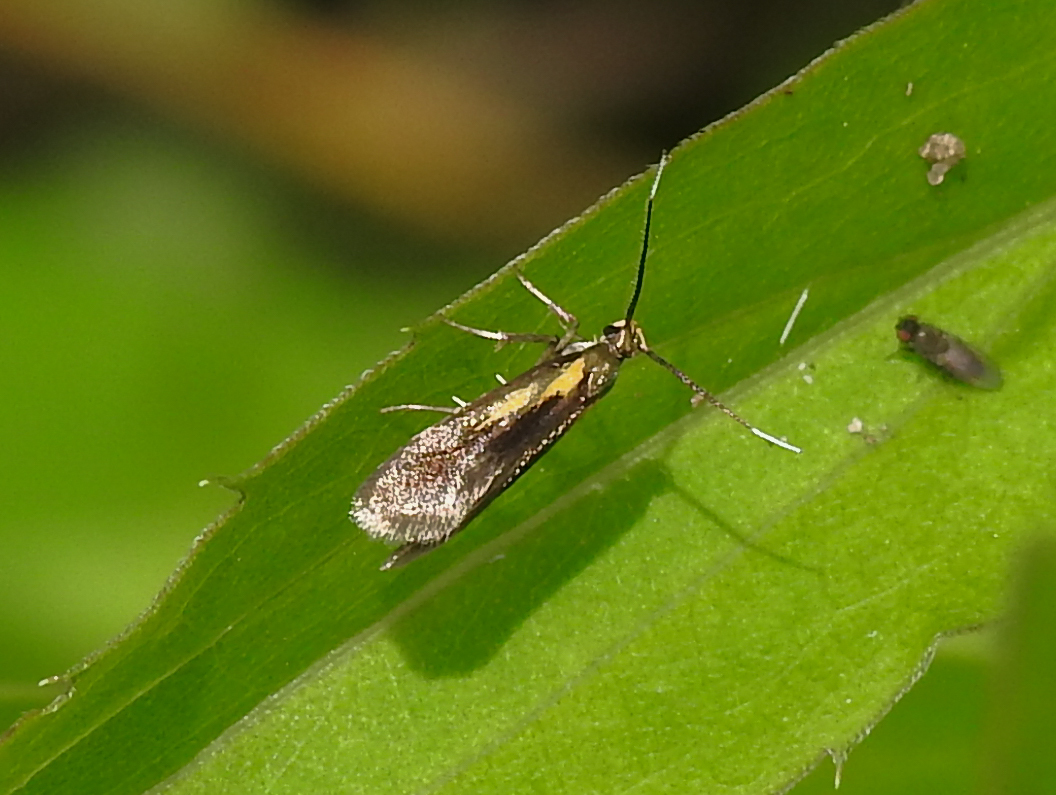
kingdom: Animalia
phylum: Arthropoda
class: Insecta
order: Lepidoptera
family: Oecophoridae
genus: Mathildana
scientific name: Mathildana newmanella
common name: Newman's mathildana moth
